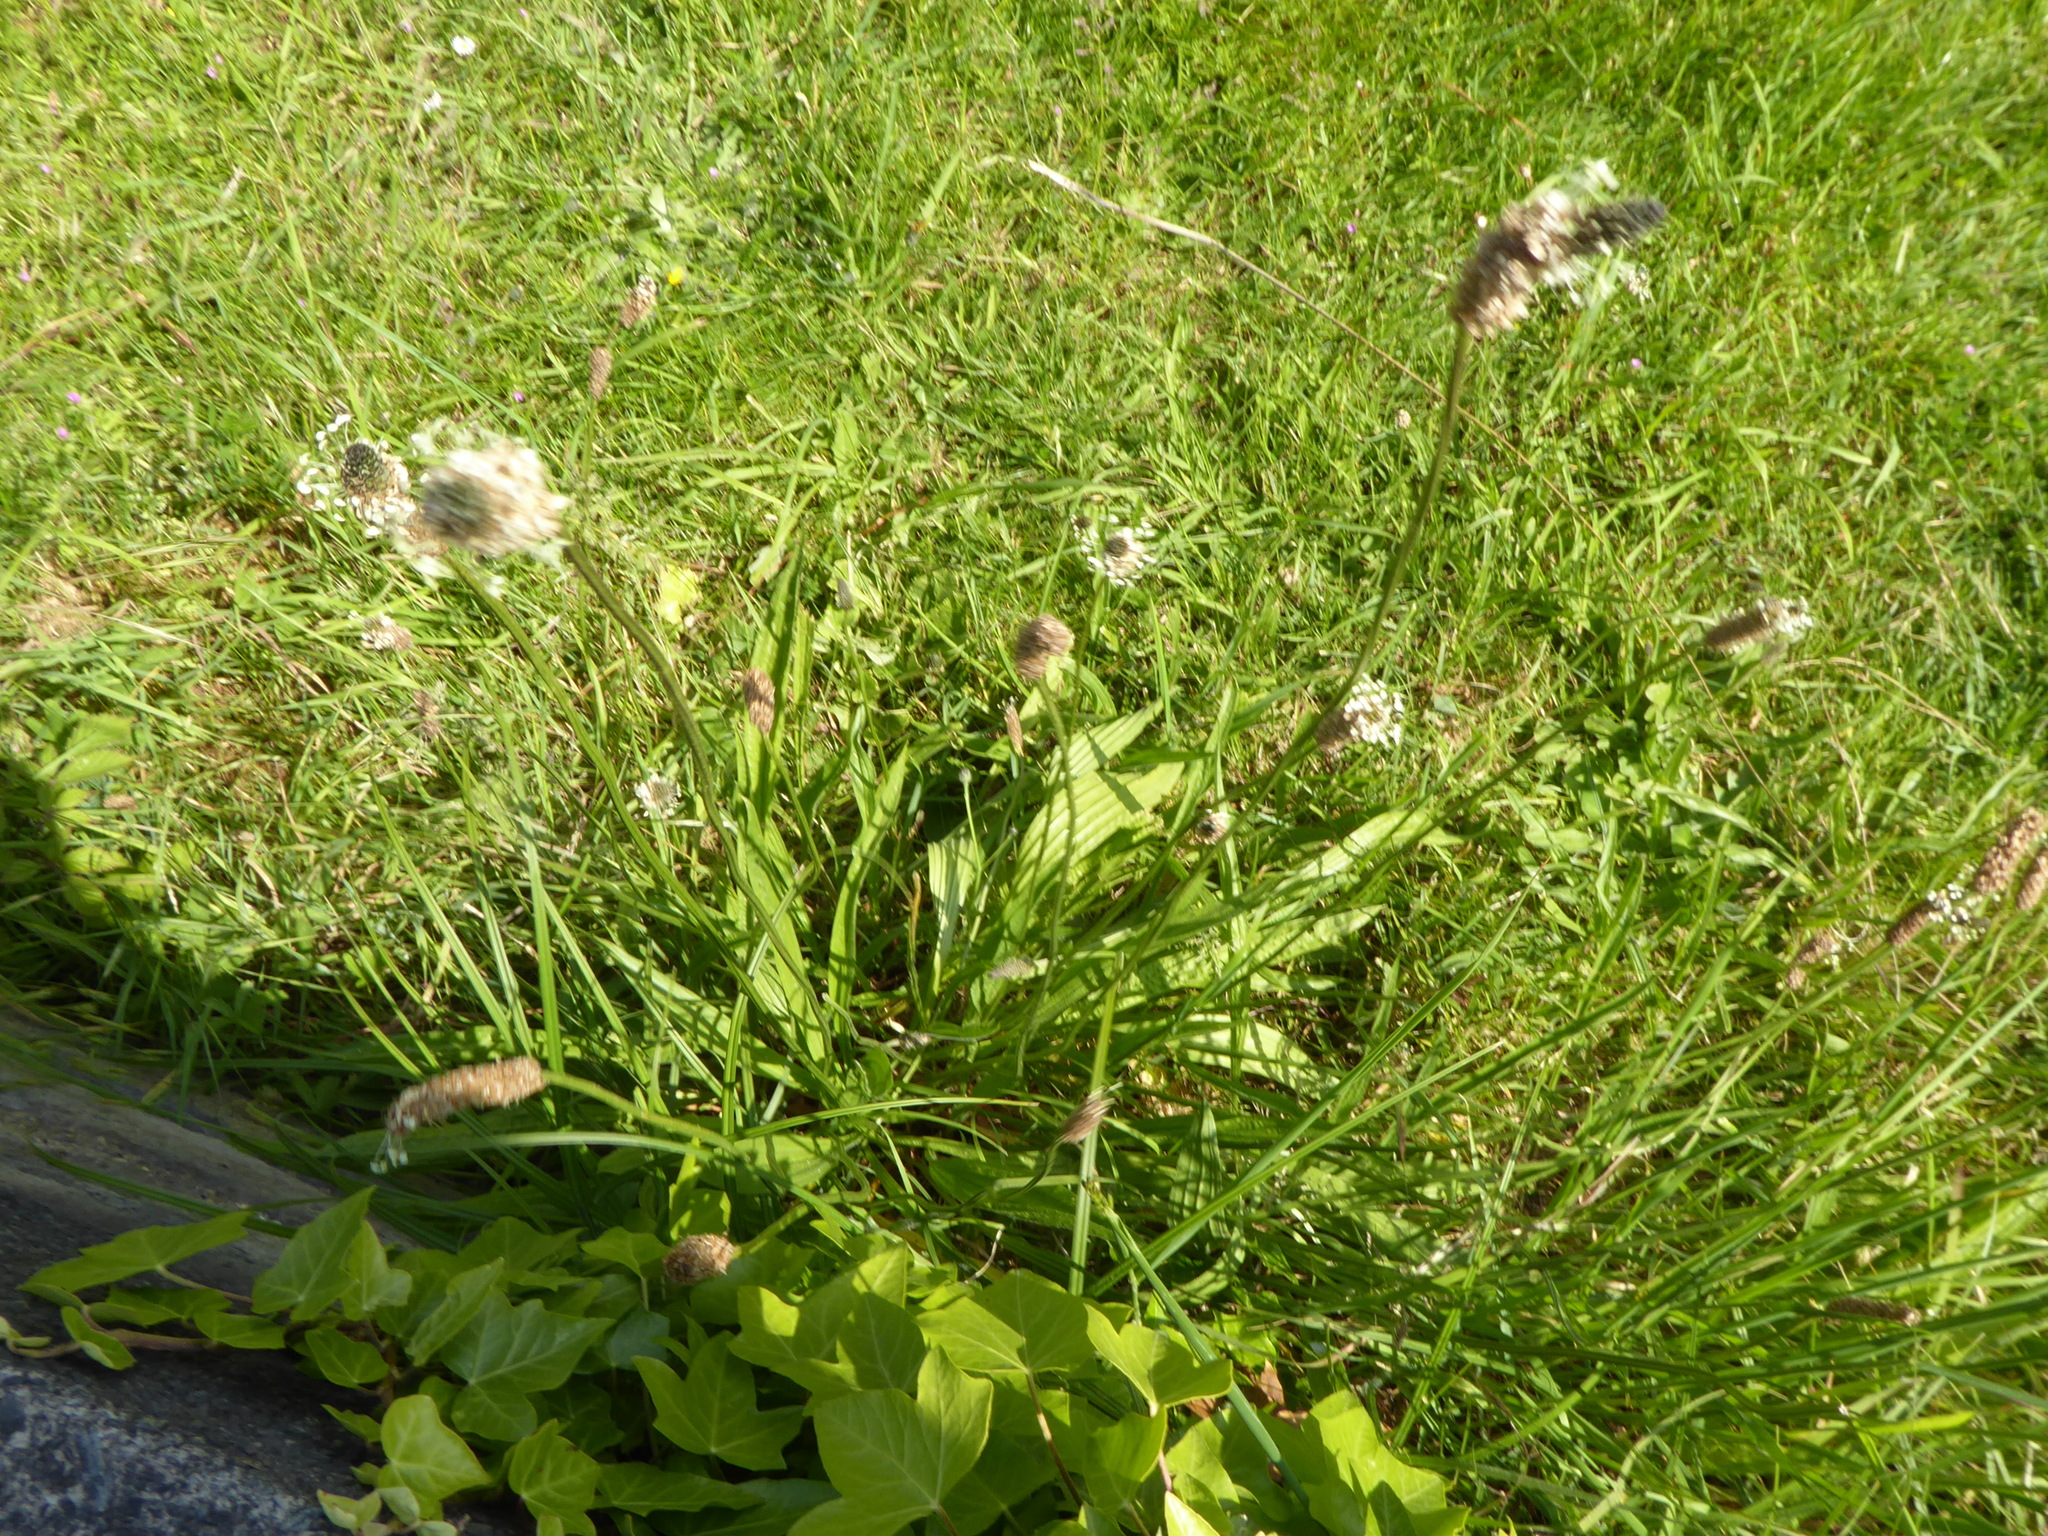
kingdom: Plantae
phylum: Tracheophyta
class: Magnoliopsida
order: Lamiales
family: Plantaginaceae
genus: Plantago
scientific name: Plantago lanceolata
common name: Ribwort plantain
